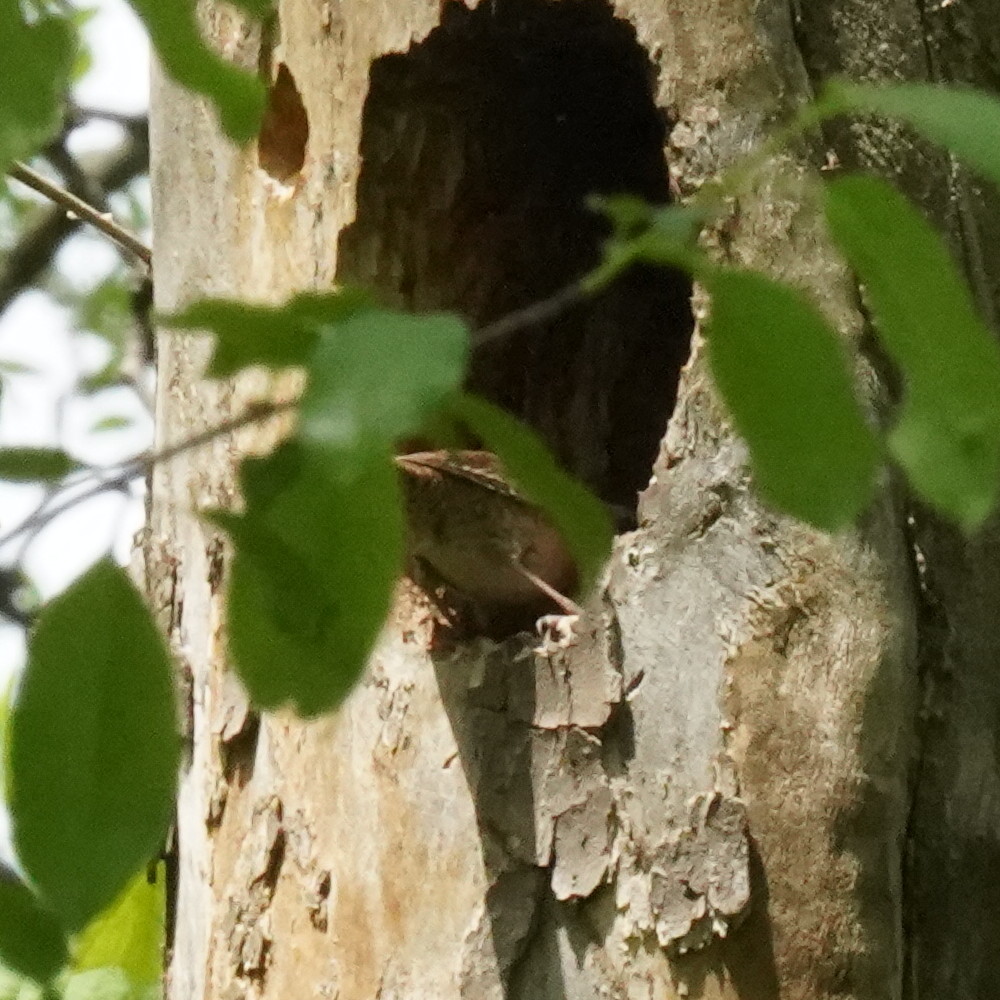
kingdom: Animalia
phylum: Chordata
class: Aves
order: Passeriformes
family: Troglodytidae
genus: Troglodytes
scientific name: Troglodytes aedon
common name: House wren
